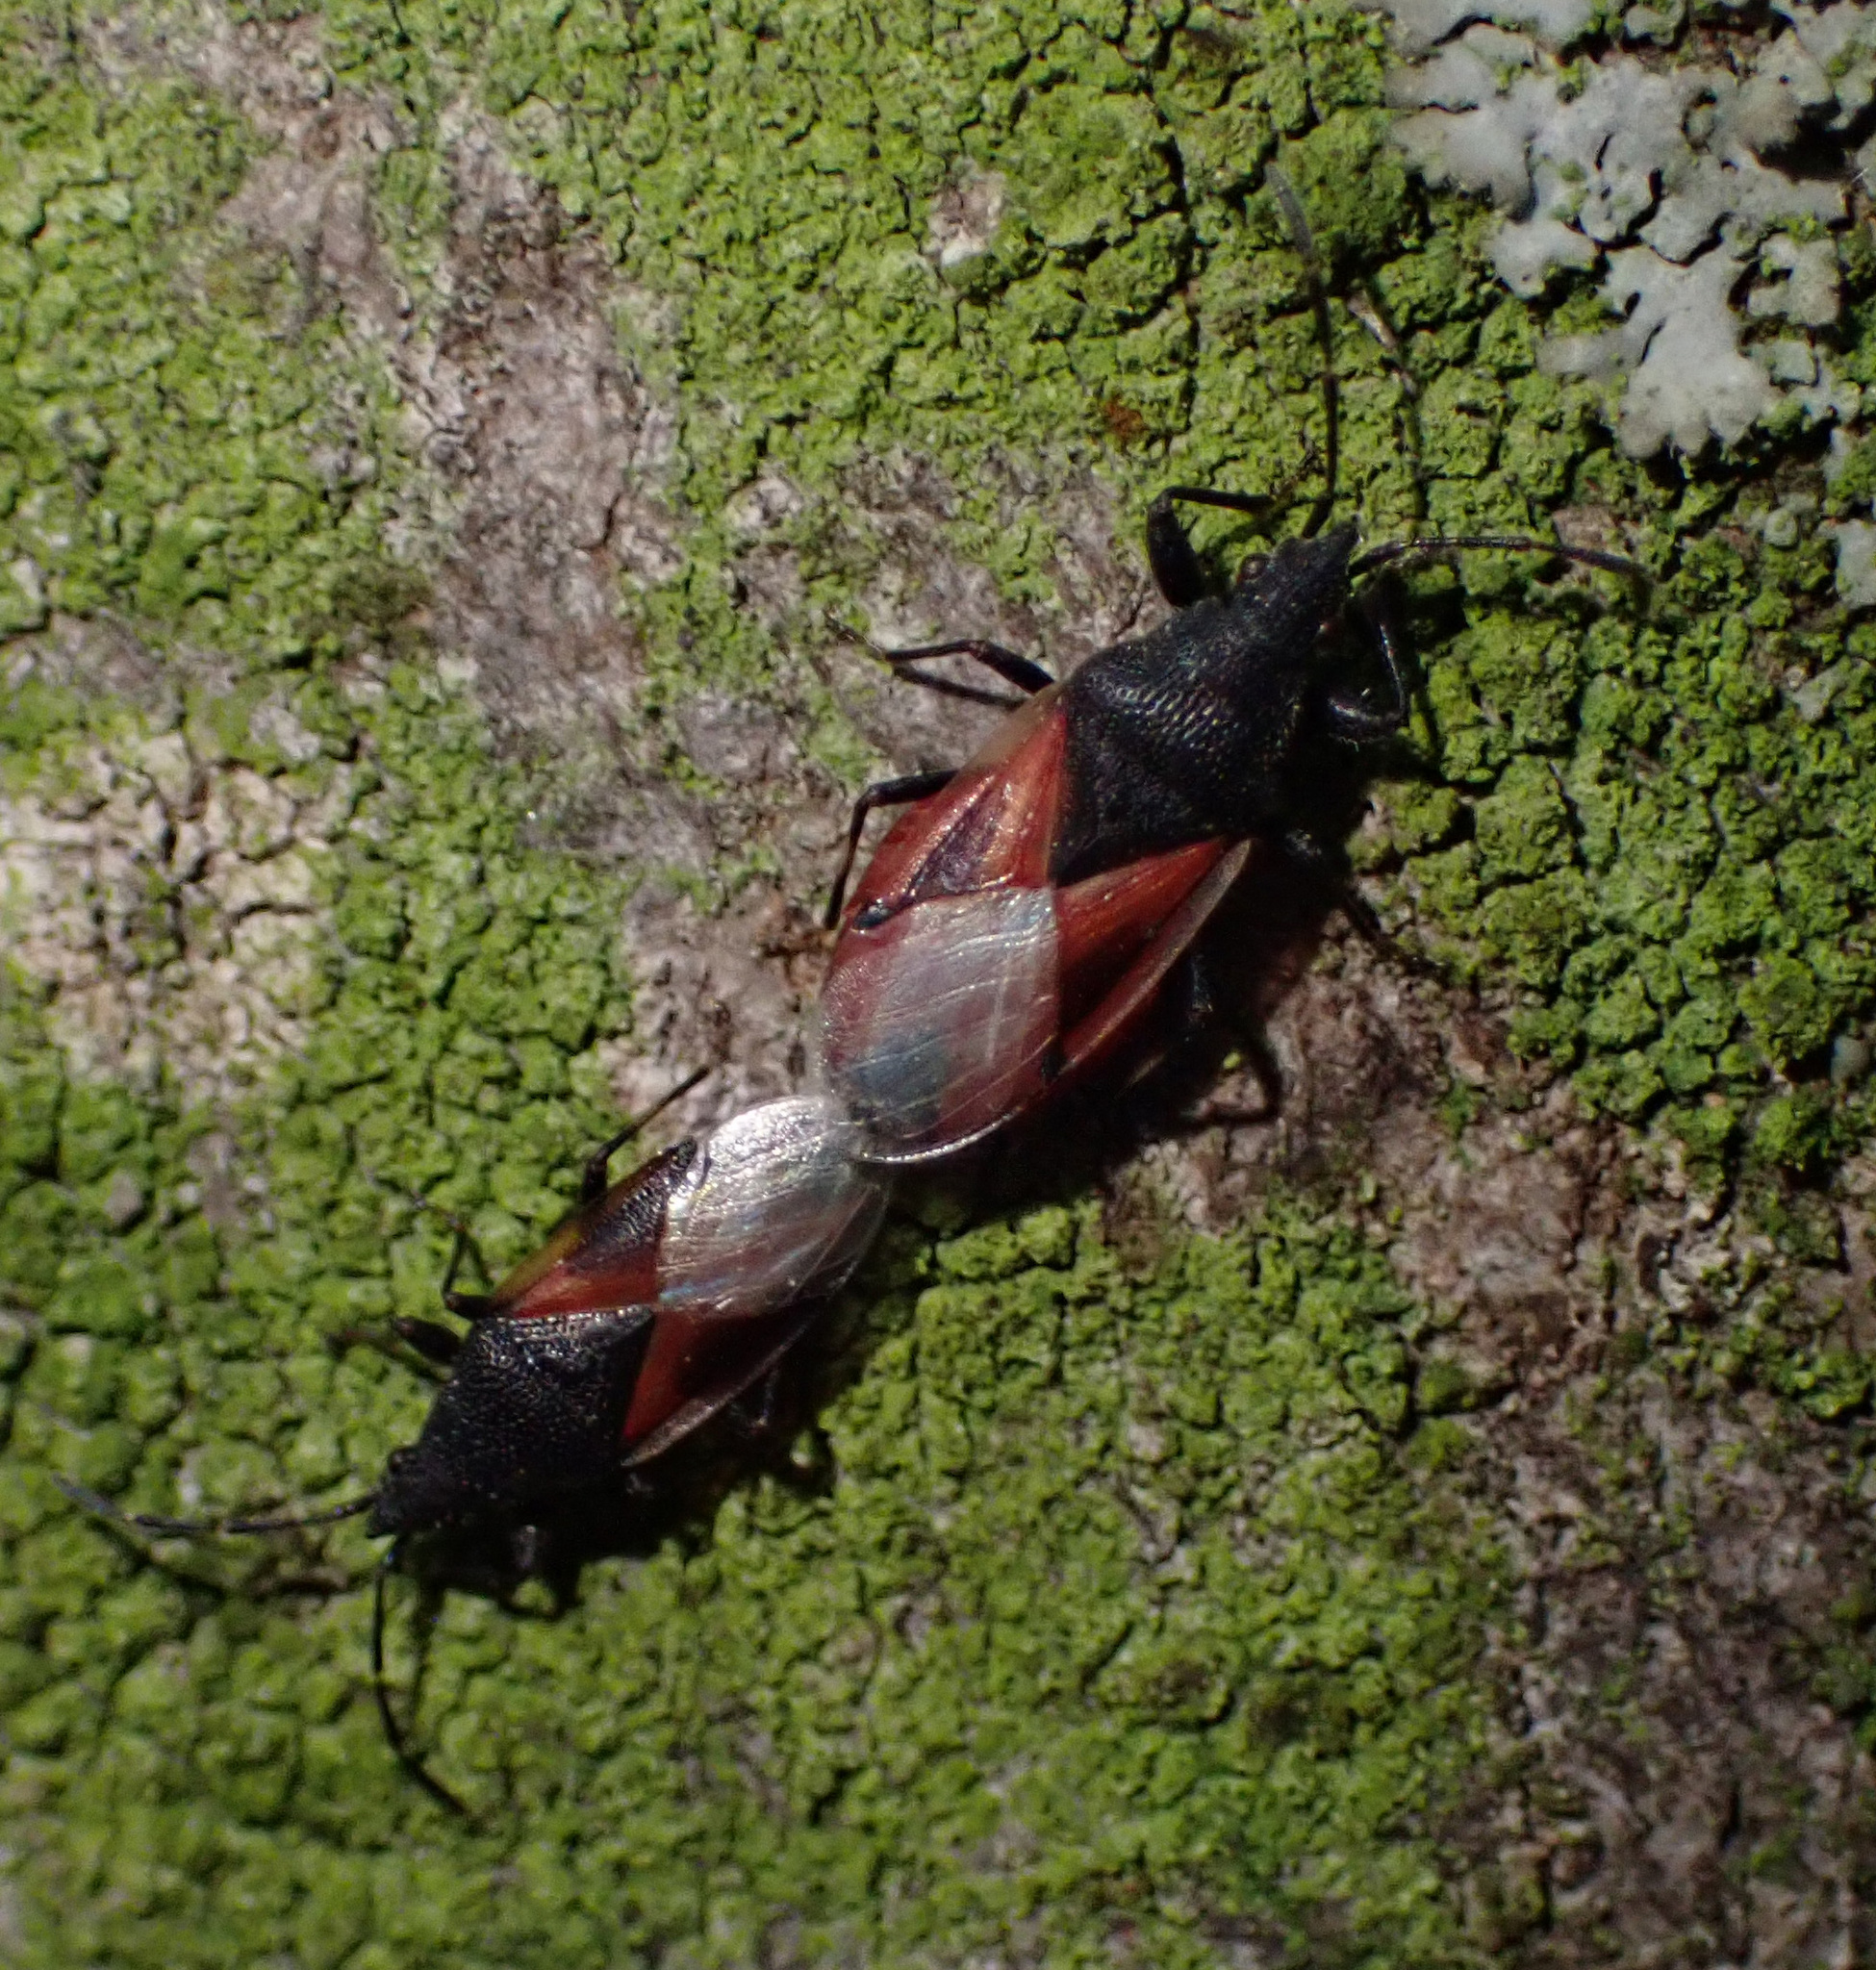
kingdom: Animalia
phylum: Arthropoda
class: Insecta
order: Hemiptera
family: Oxycarenidae
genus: Oxycarenus
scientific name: Oxycarenus lavaterae
